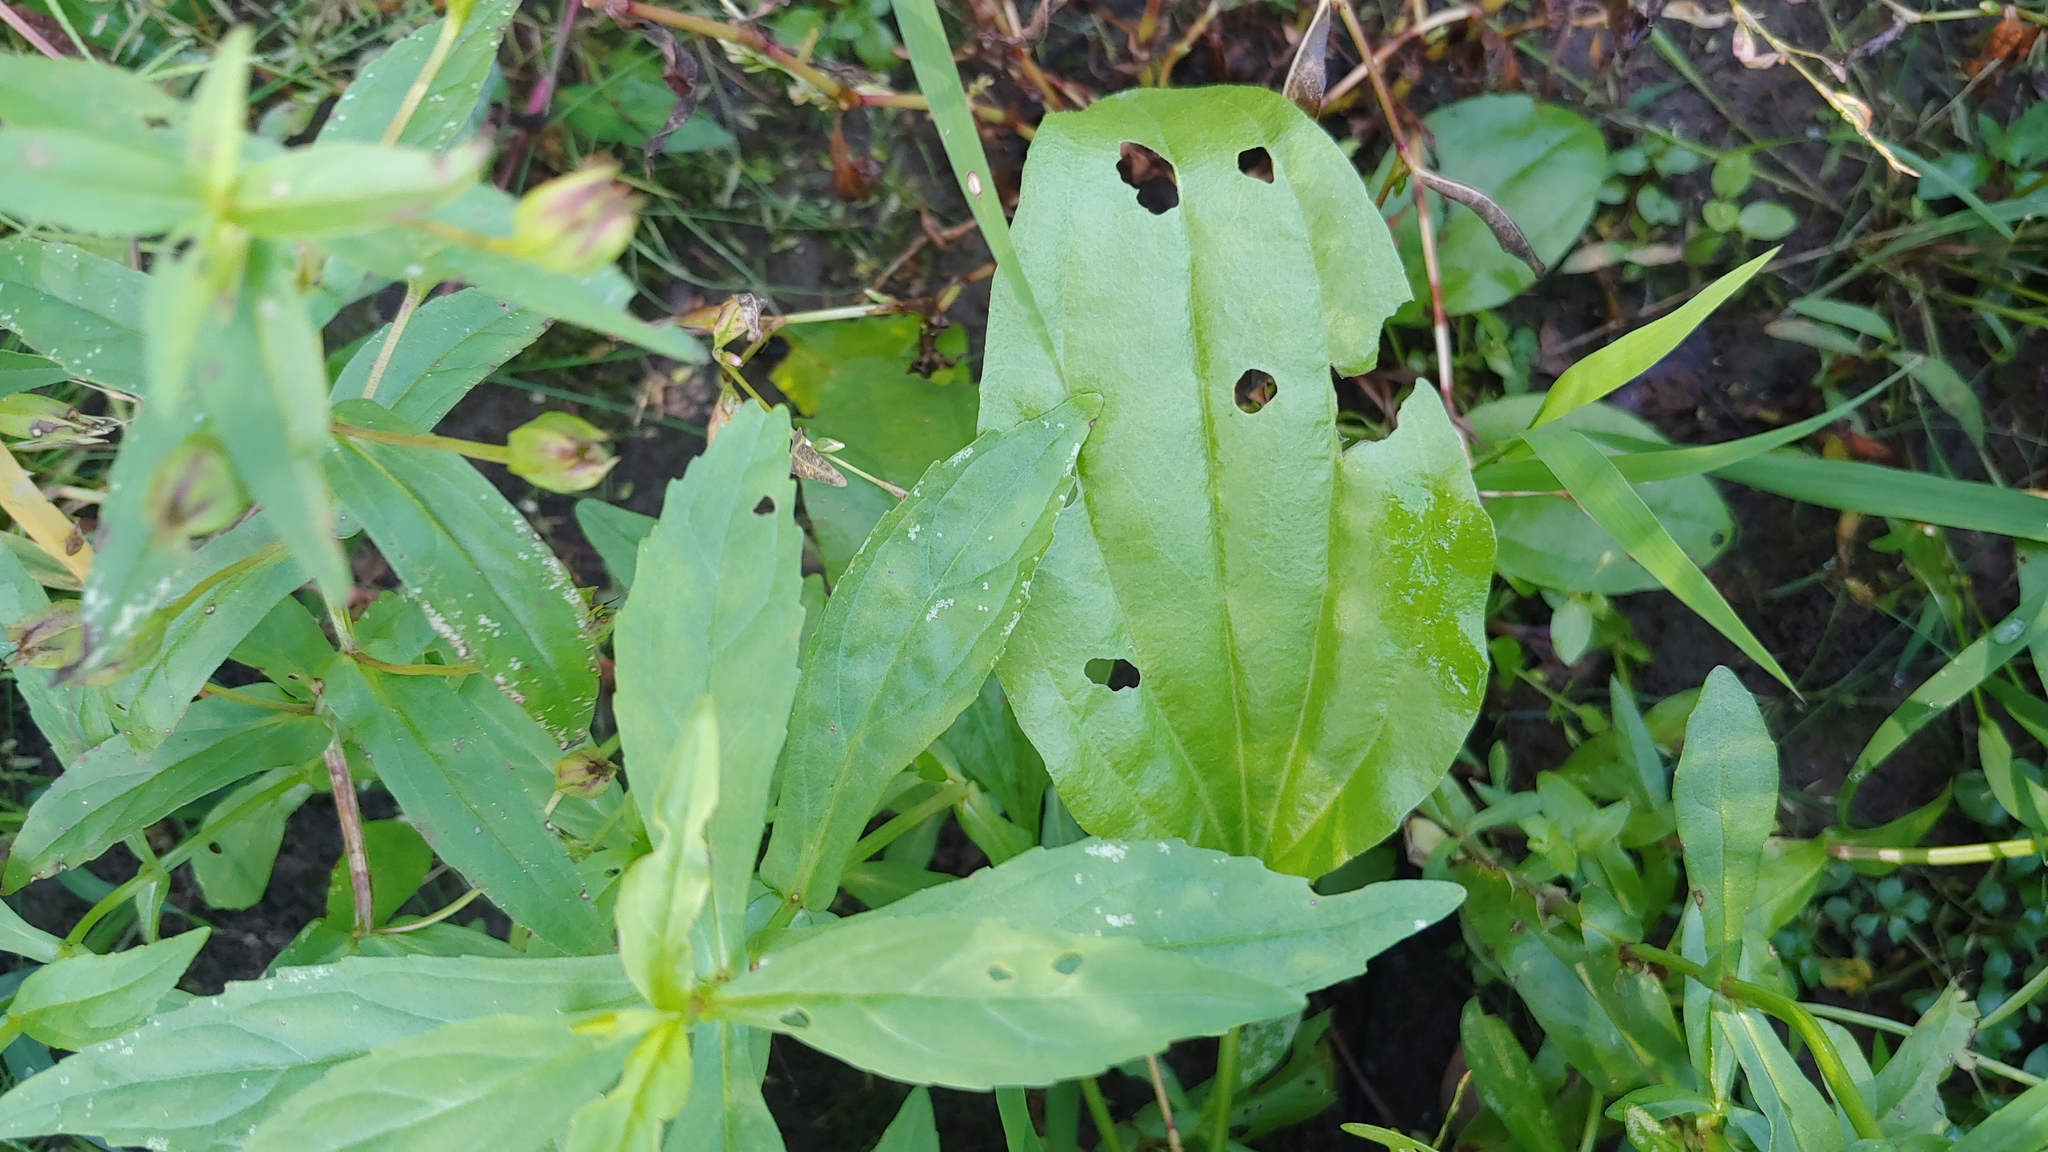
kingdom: Plantae
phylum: Tracheophyta
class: Magnoliopsida
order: Lamiales
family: Plantaginaceae
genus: Plantago
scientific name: Plantago rugelii
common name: American plantain
